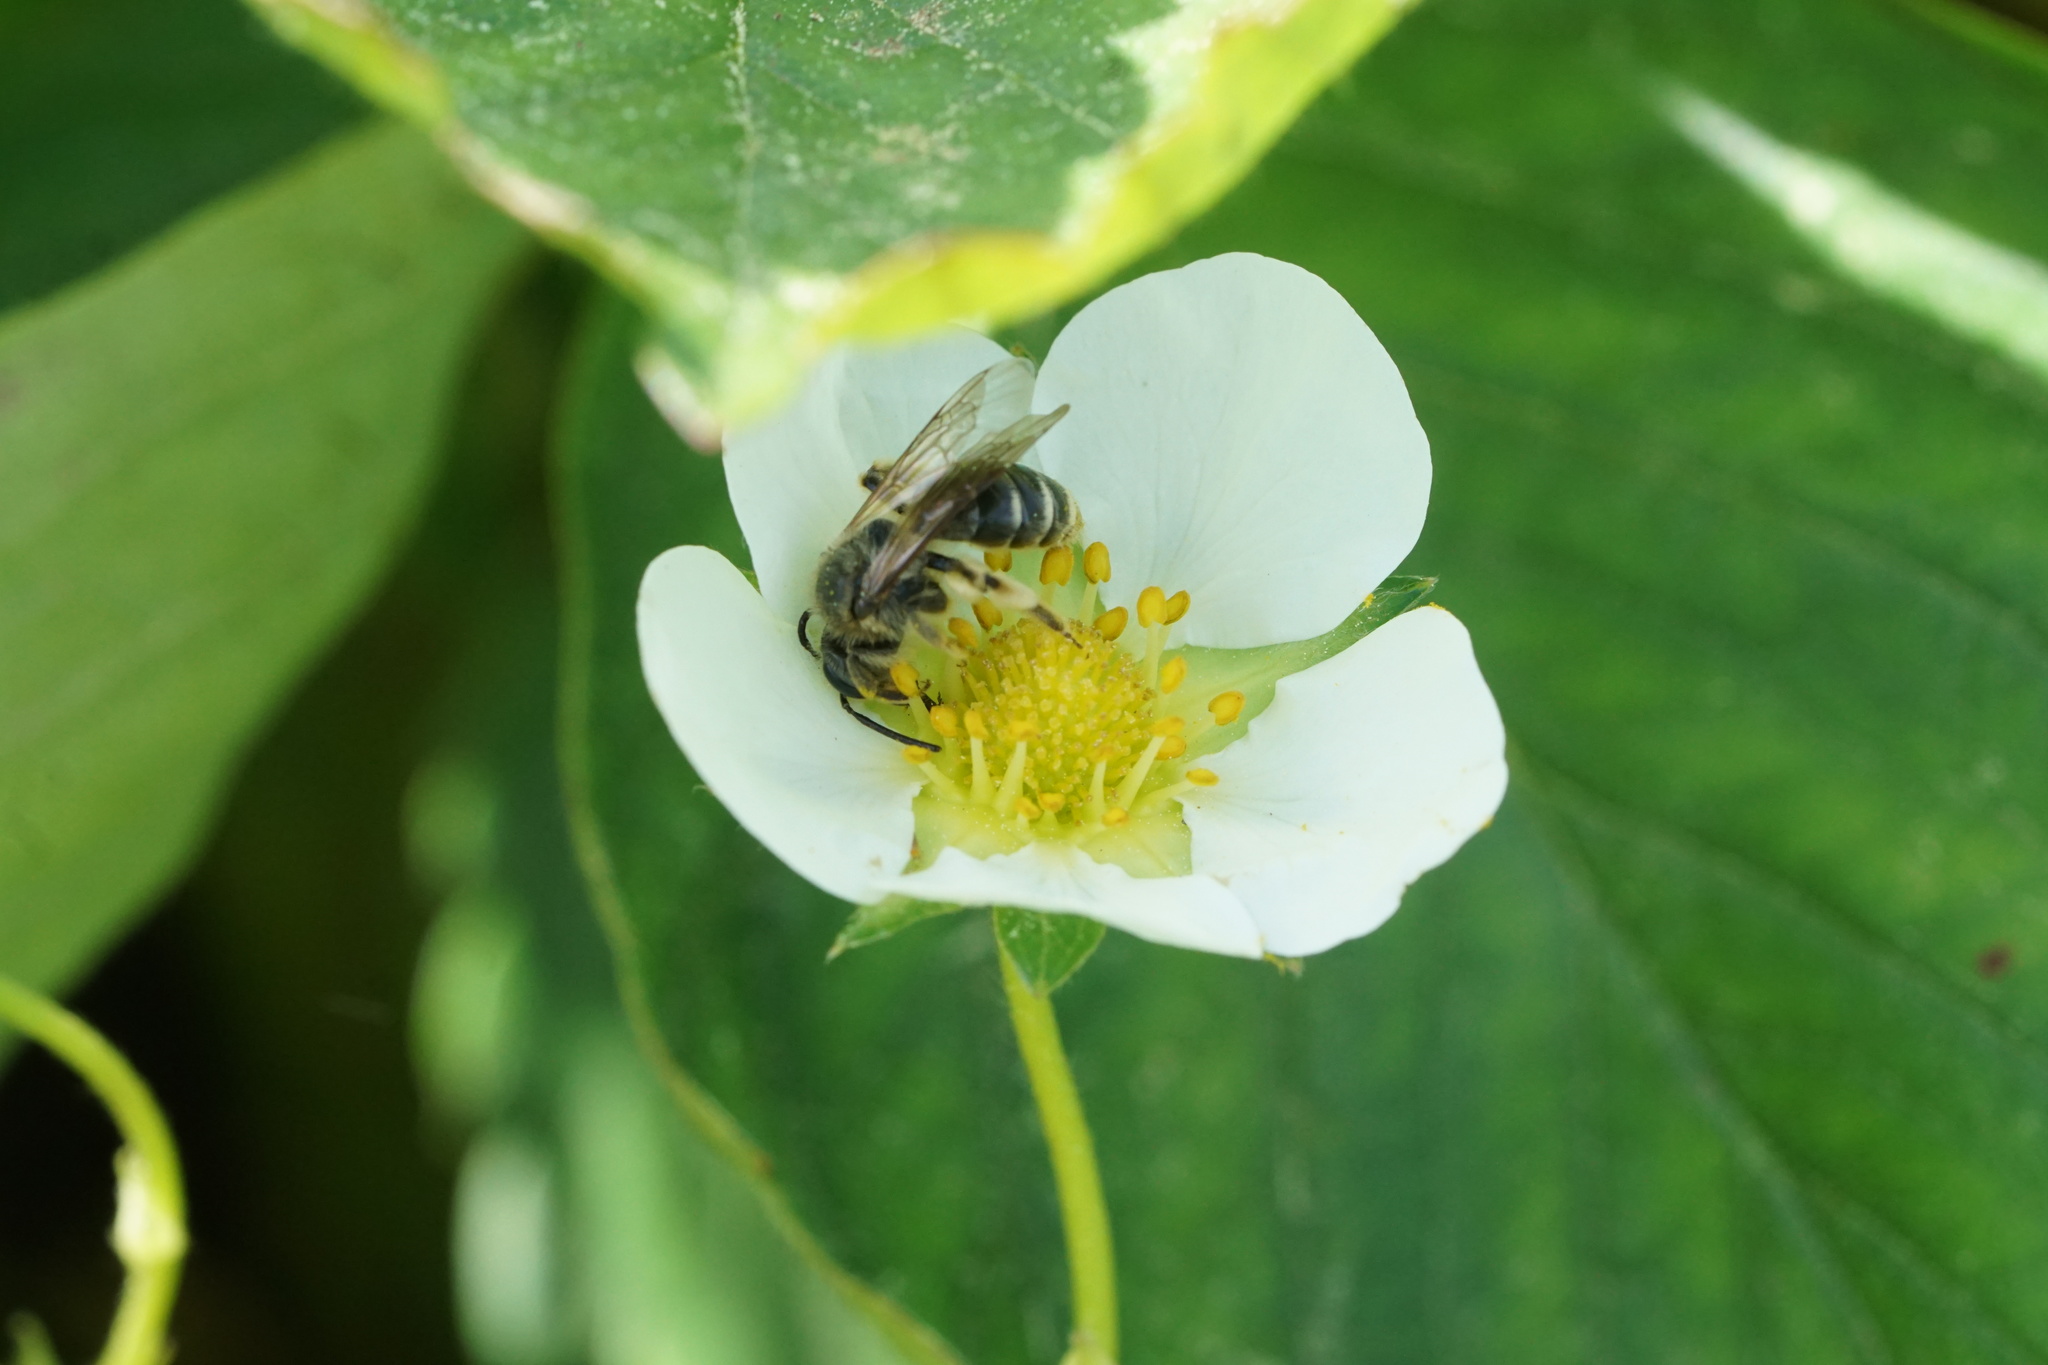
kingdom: Animalia
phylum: Arthropoda
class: Insecta
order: Hymenoptera
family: Andrenidae
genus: Andrena
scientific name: Andrena nasonii
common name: Nason's mining bee
